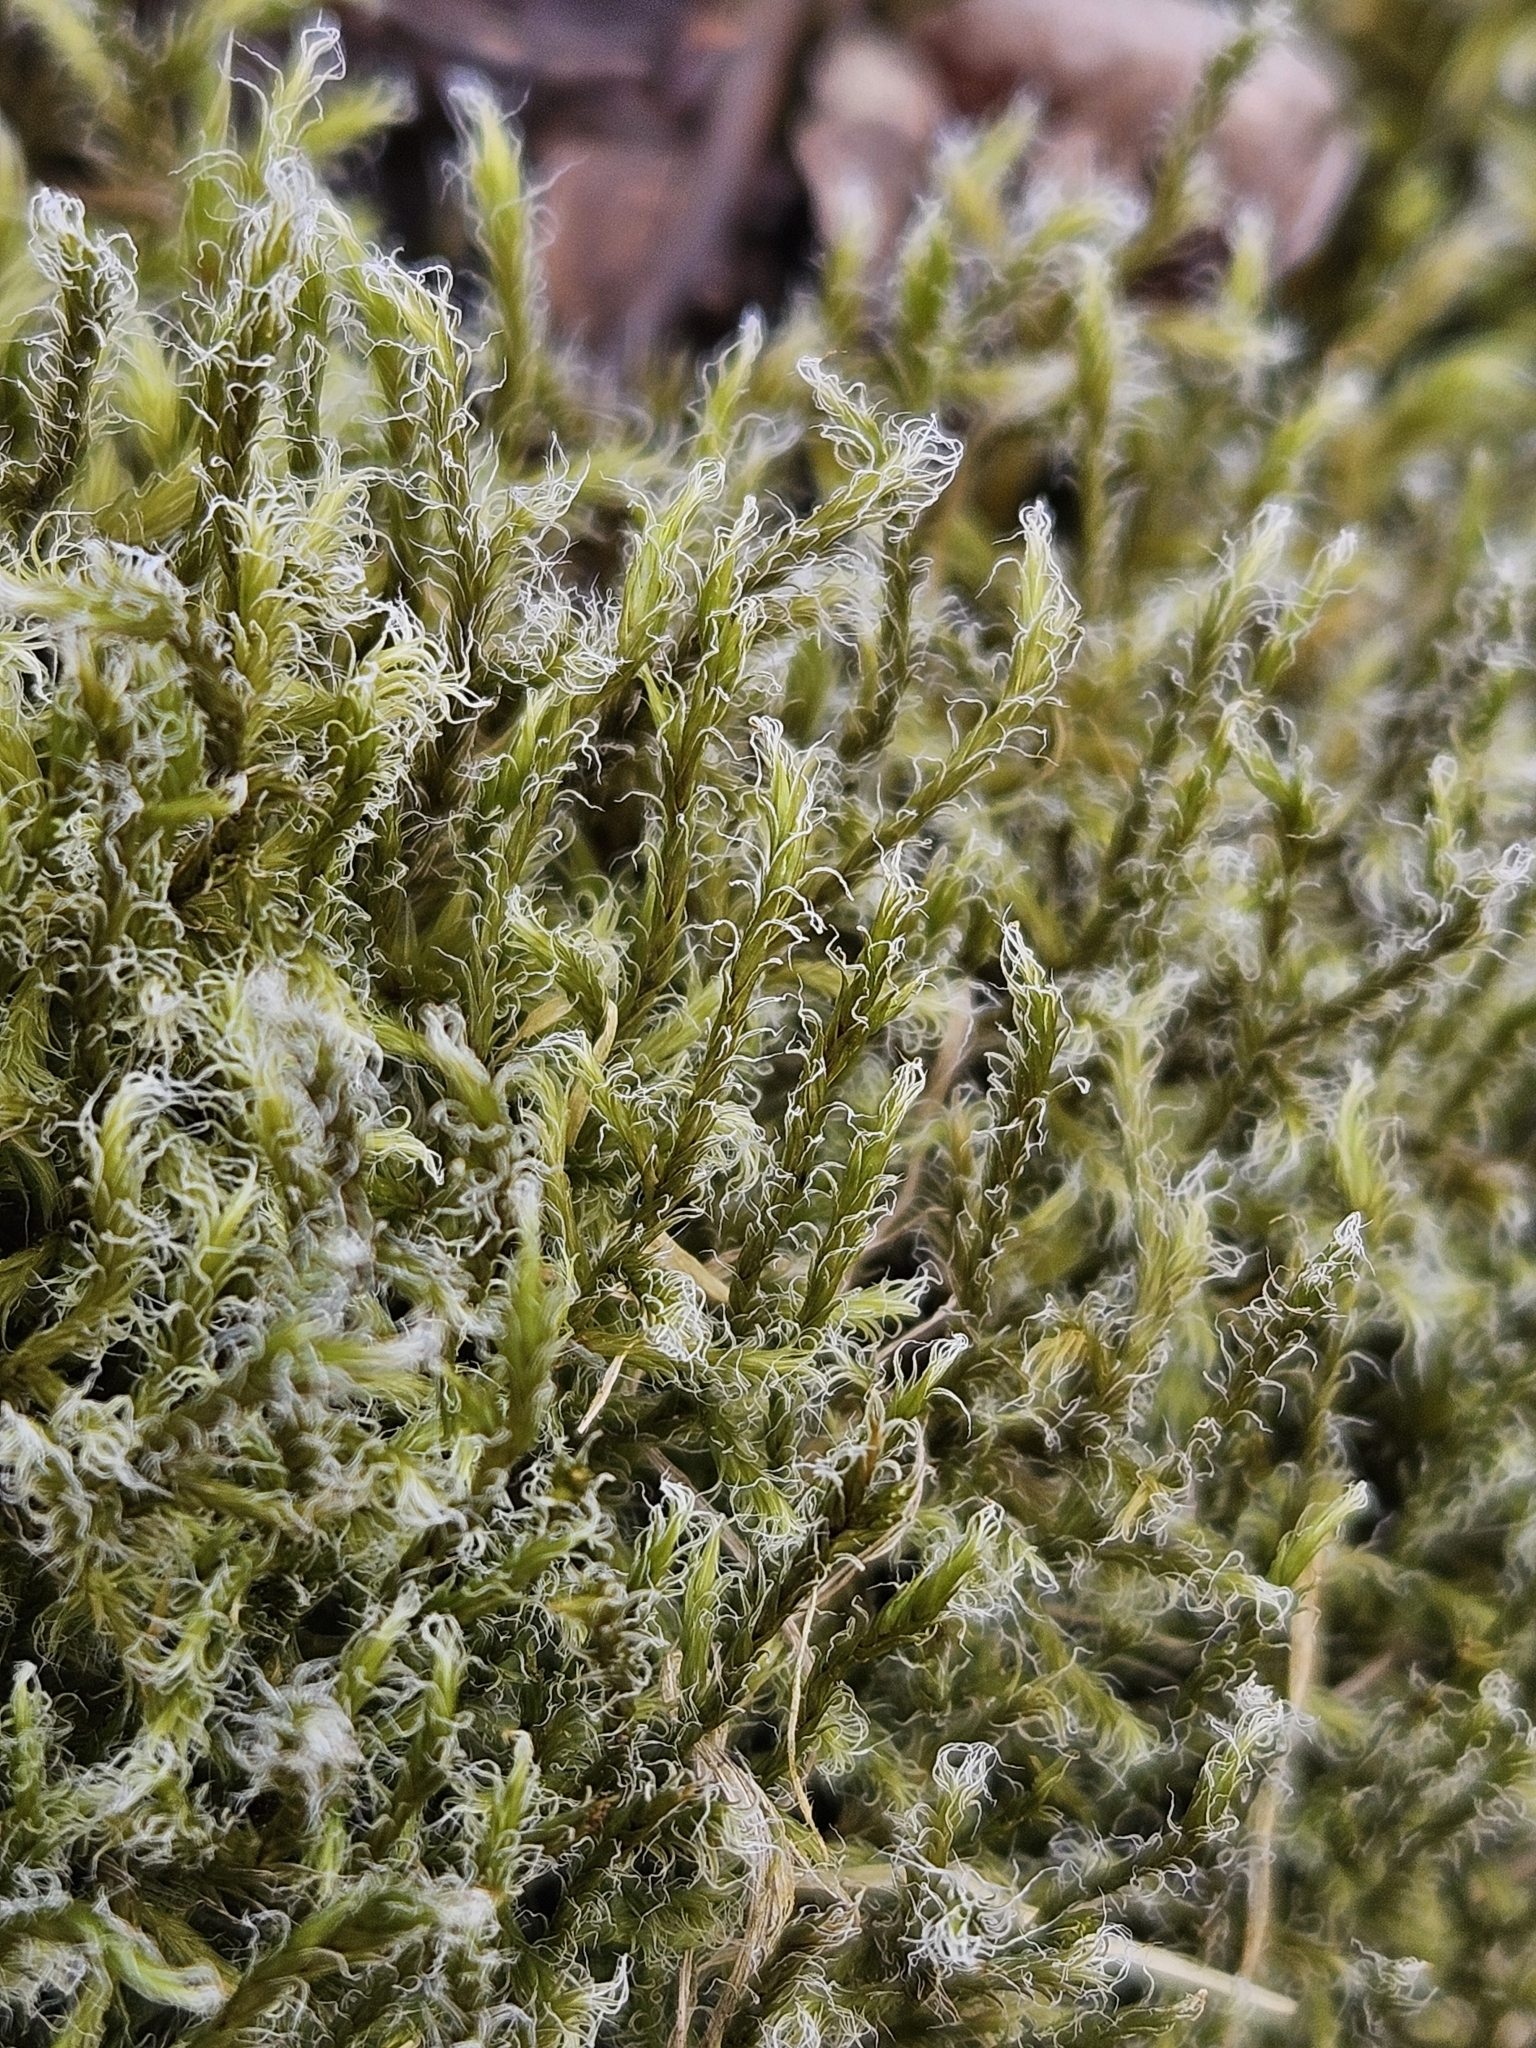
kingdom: Plantae
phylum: Bryophyta
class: Bryopsida
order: Grimmiales
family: Grimmiaceae
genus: Racomitrium
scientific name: Racomitrium lanuginosum
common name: Hoary rock moss
